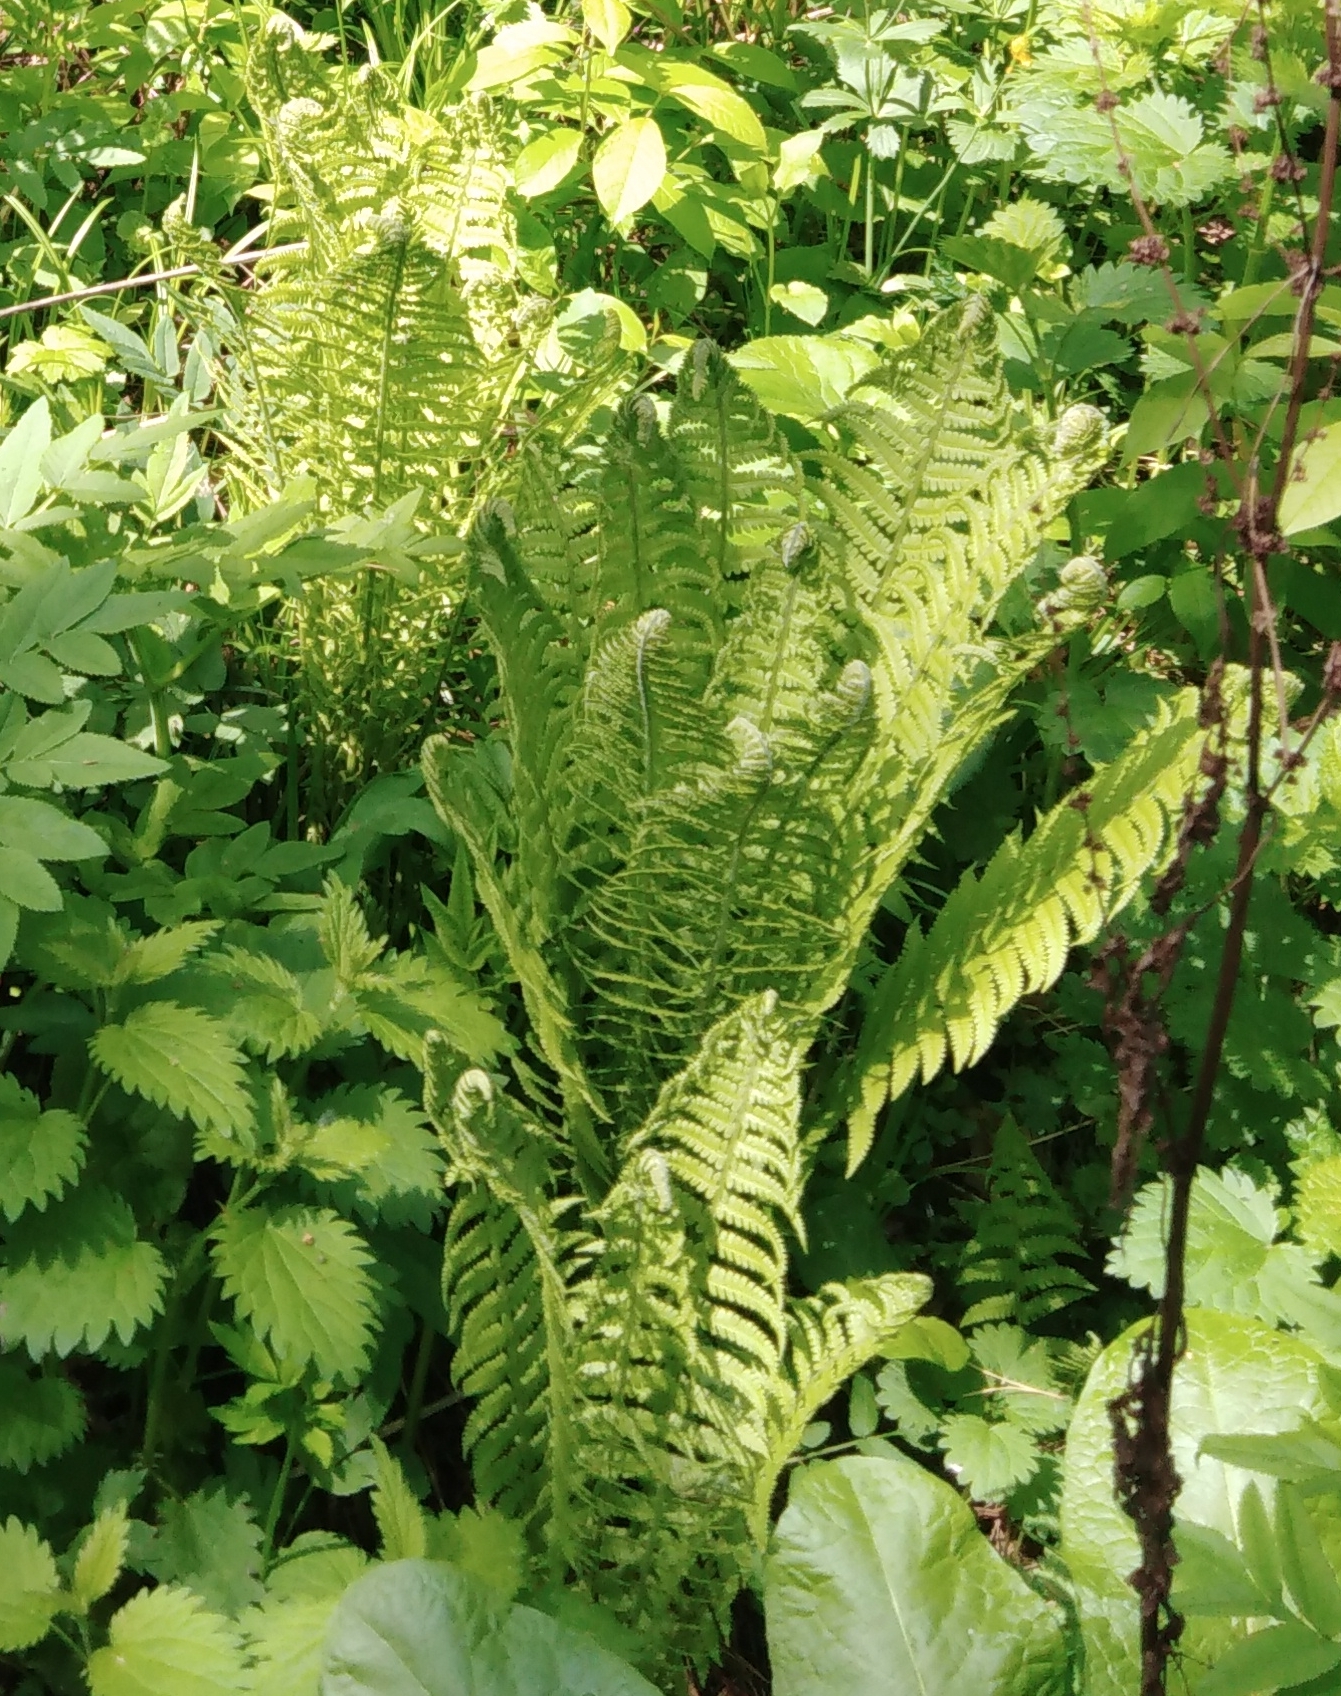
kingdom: Plantae
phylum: Tracheophyta
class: Polypodiopsida
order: Polypodiales
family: Onocleaceae
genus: Matteuccia
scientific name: Matteuccia struthiopteris
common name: Ostrich fern
